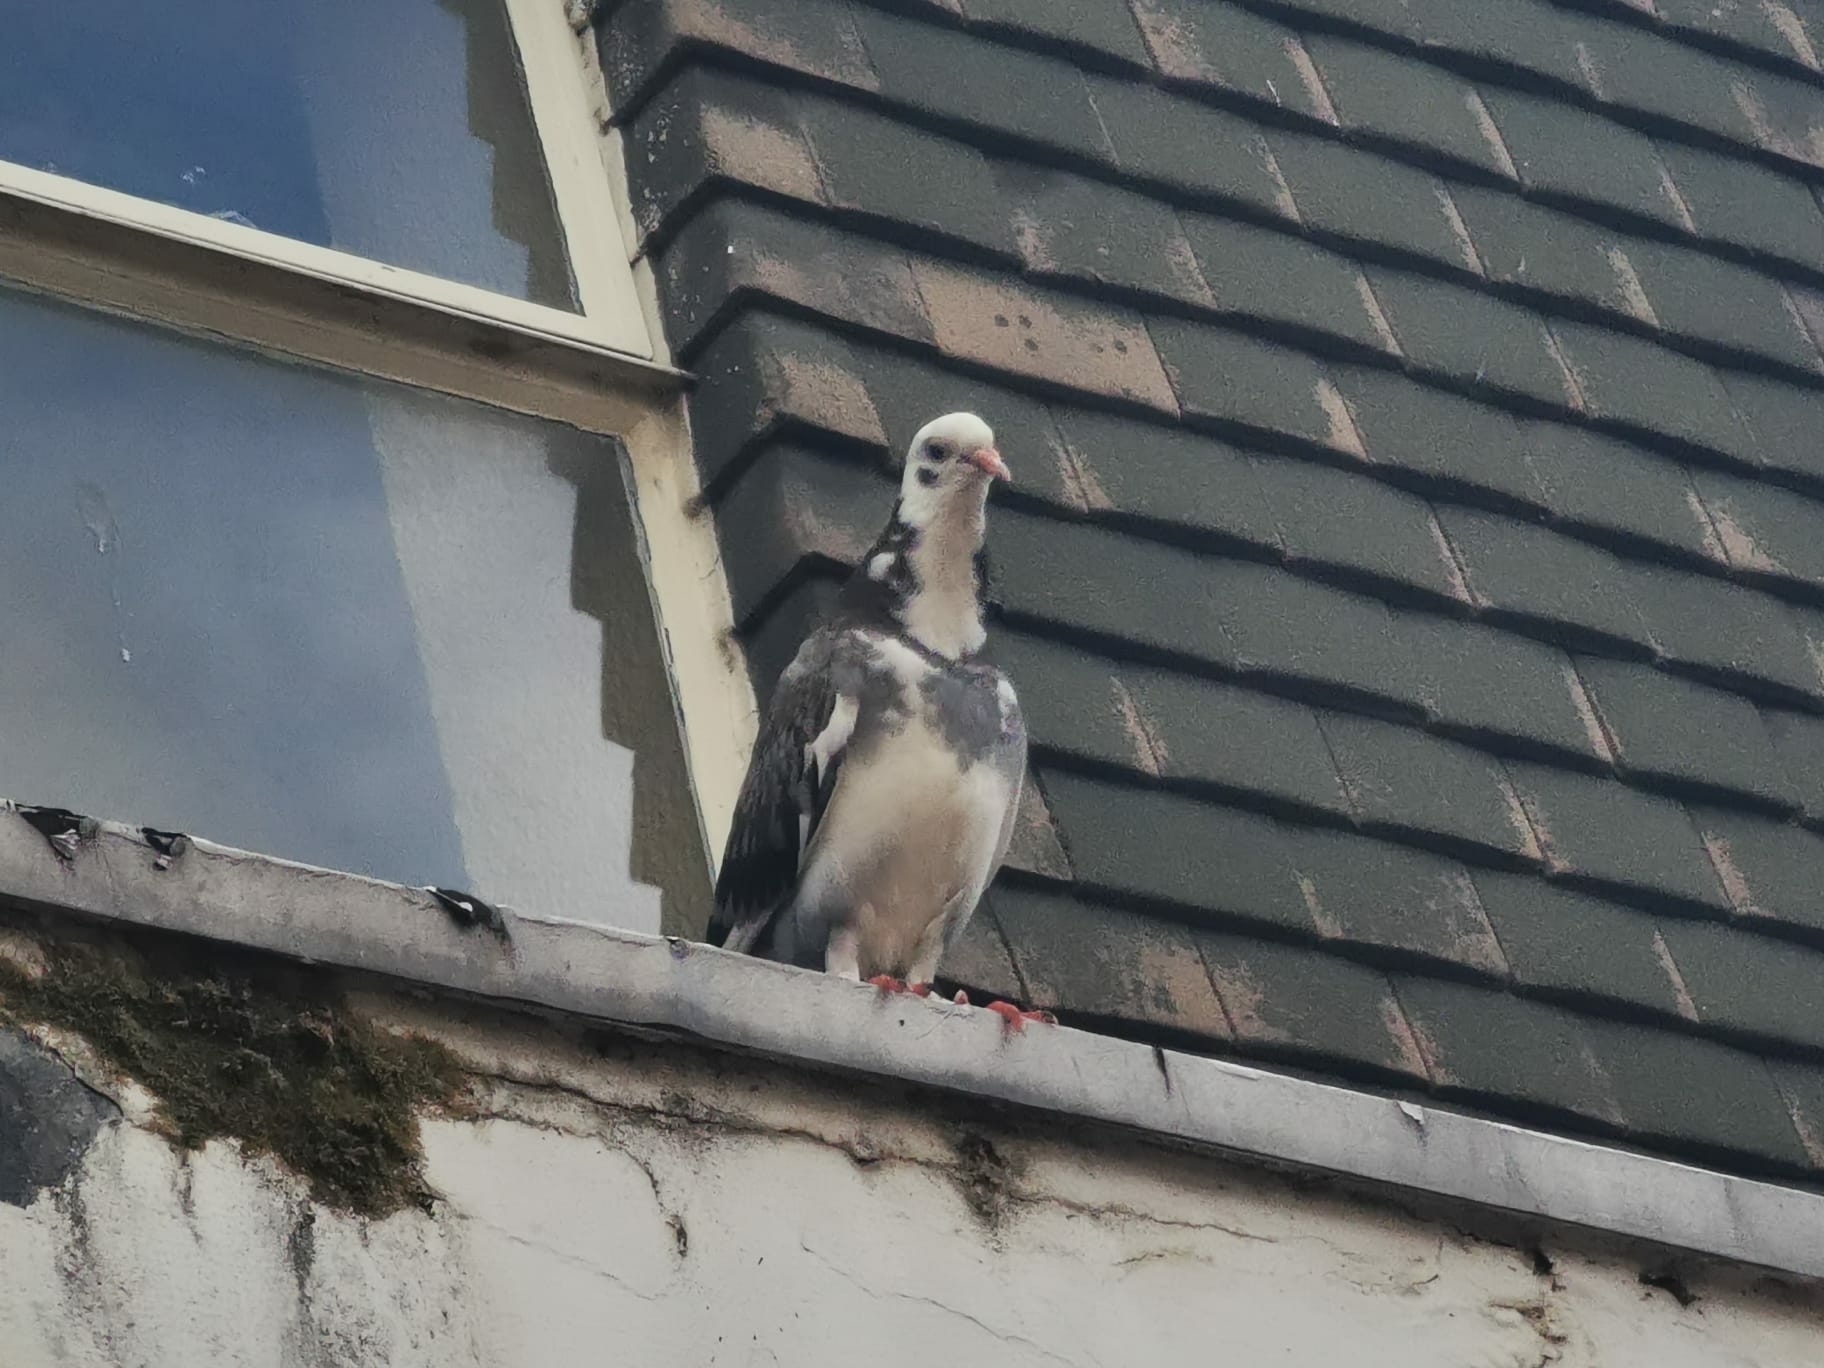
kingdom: Animalia
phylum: Chordata
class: Aves
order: Columbiformes
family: Columbidae
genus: Columba
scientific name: Columba livia
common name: Rock pigeon
